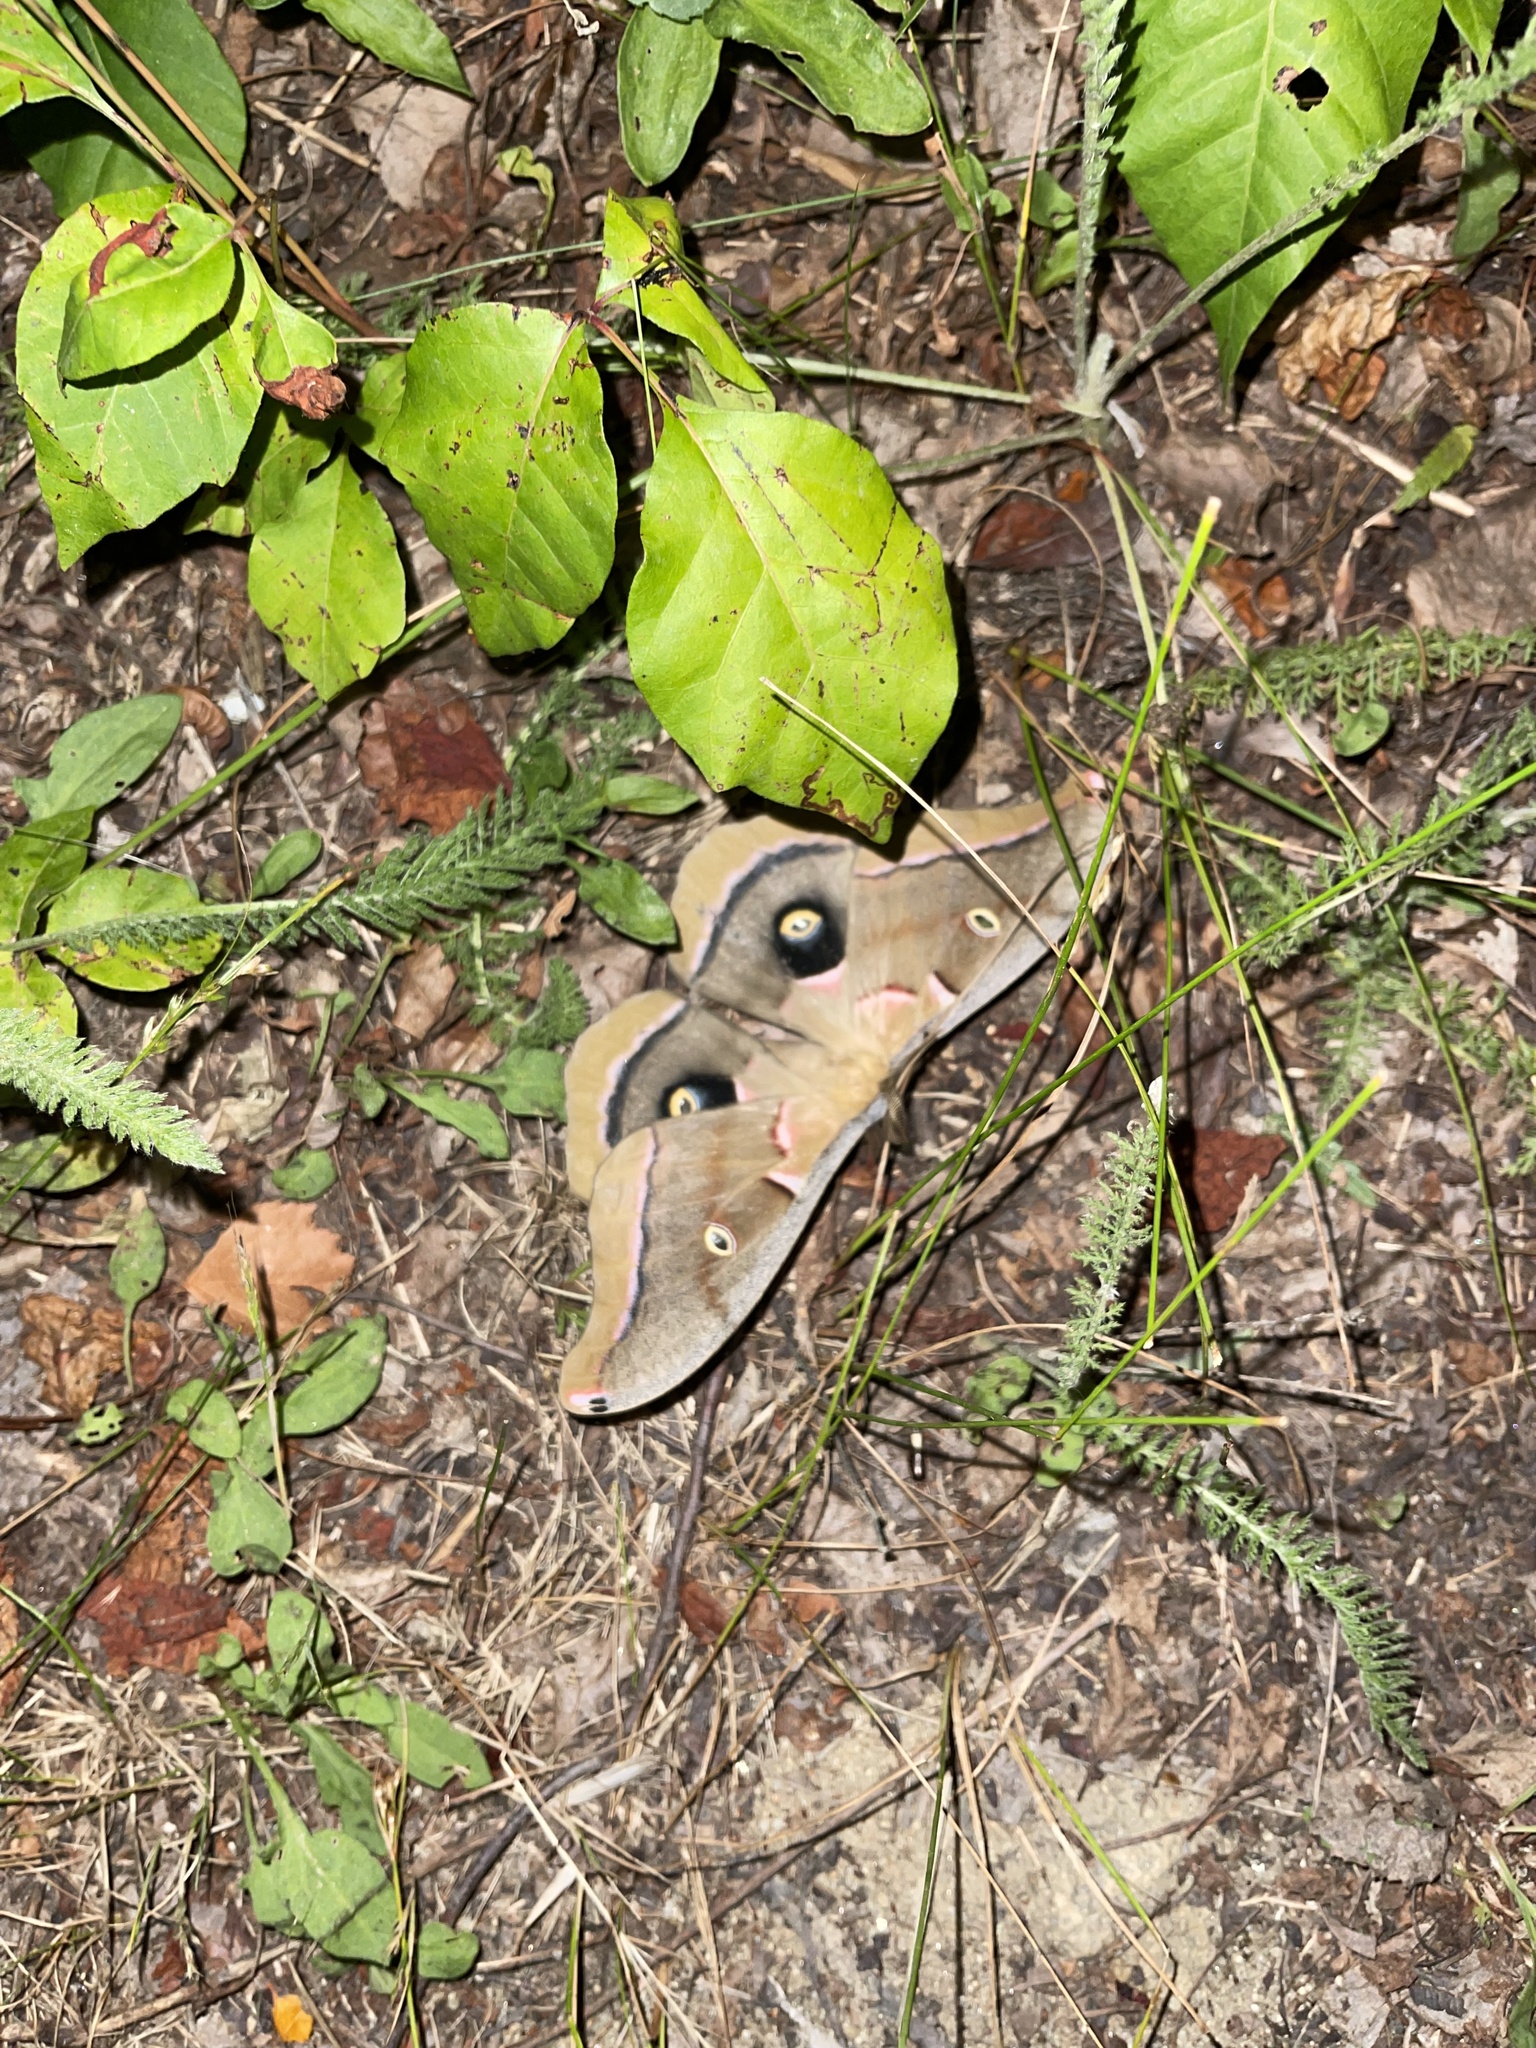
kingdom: Animalia
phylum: Arthropoda
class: Insecta
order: Lepidoptera
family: Saturniidae
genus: Antheraea
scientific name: Antheraea polyphemus
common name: Polyphemus moth
